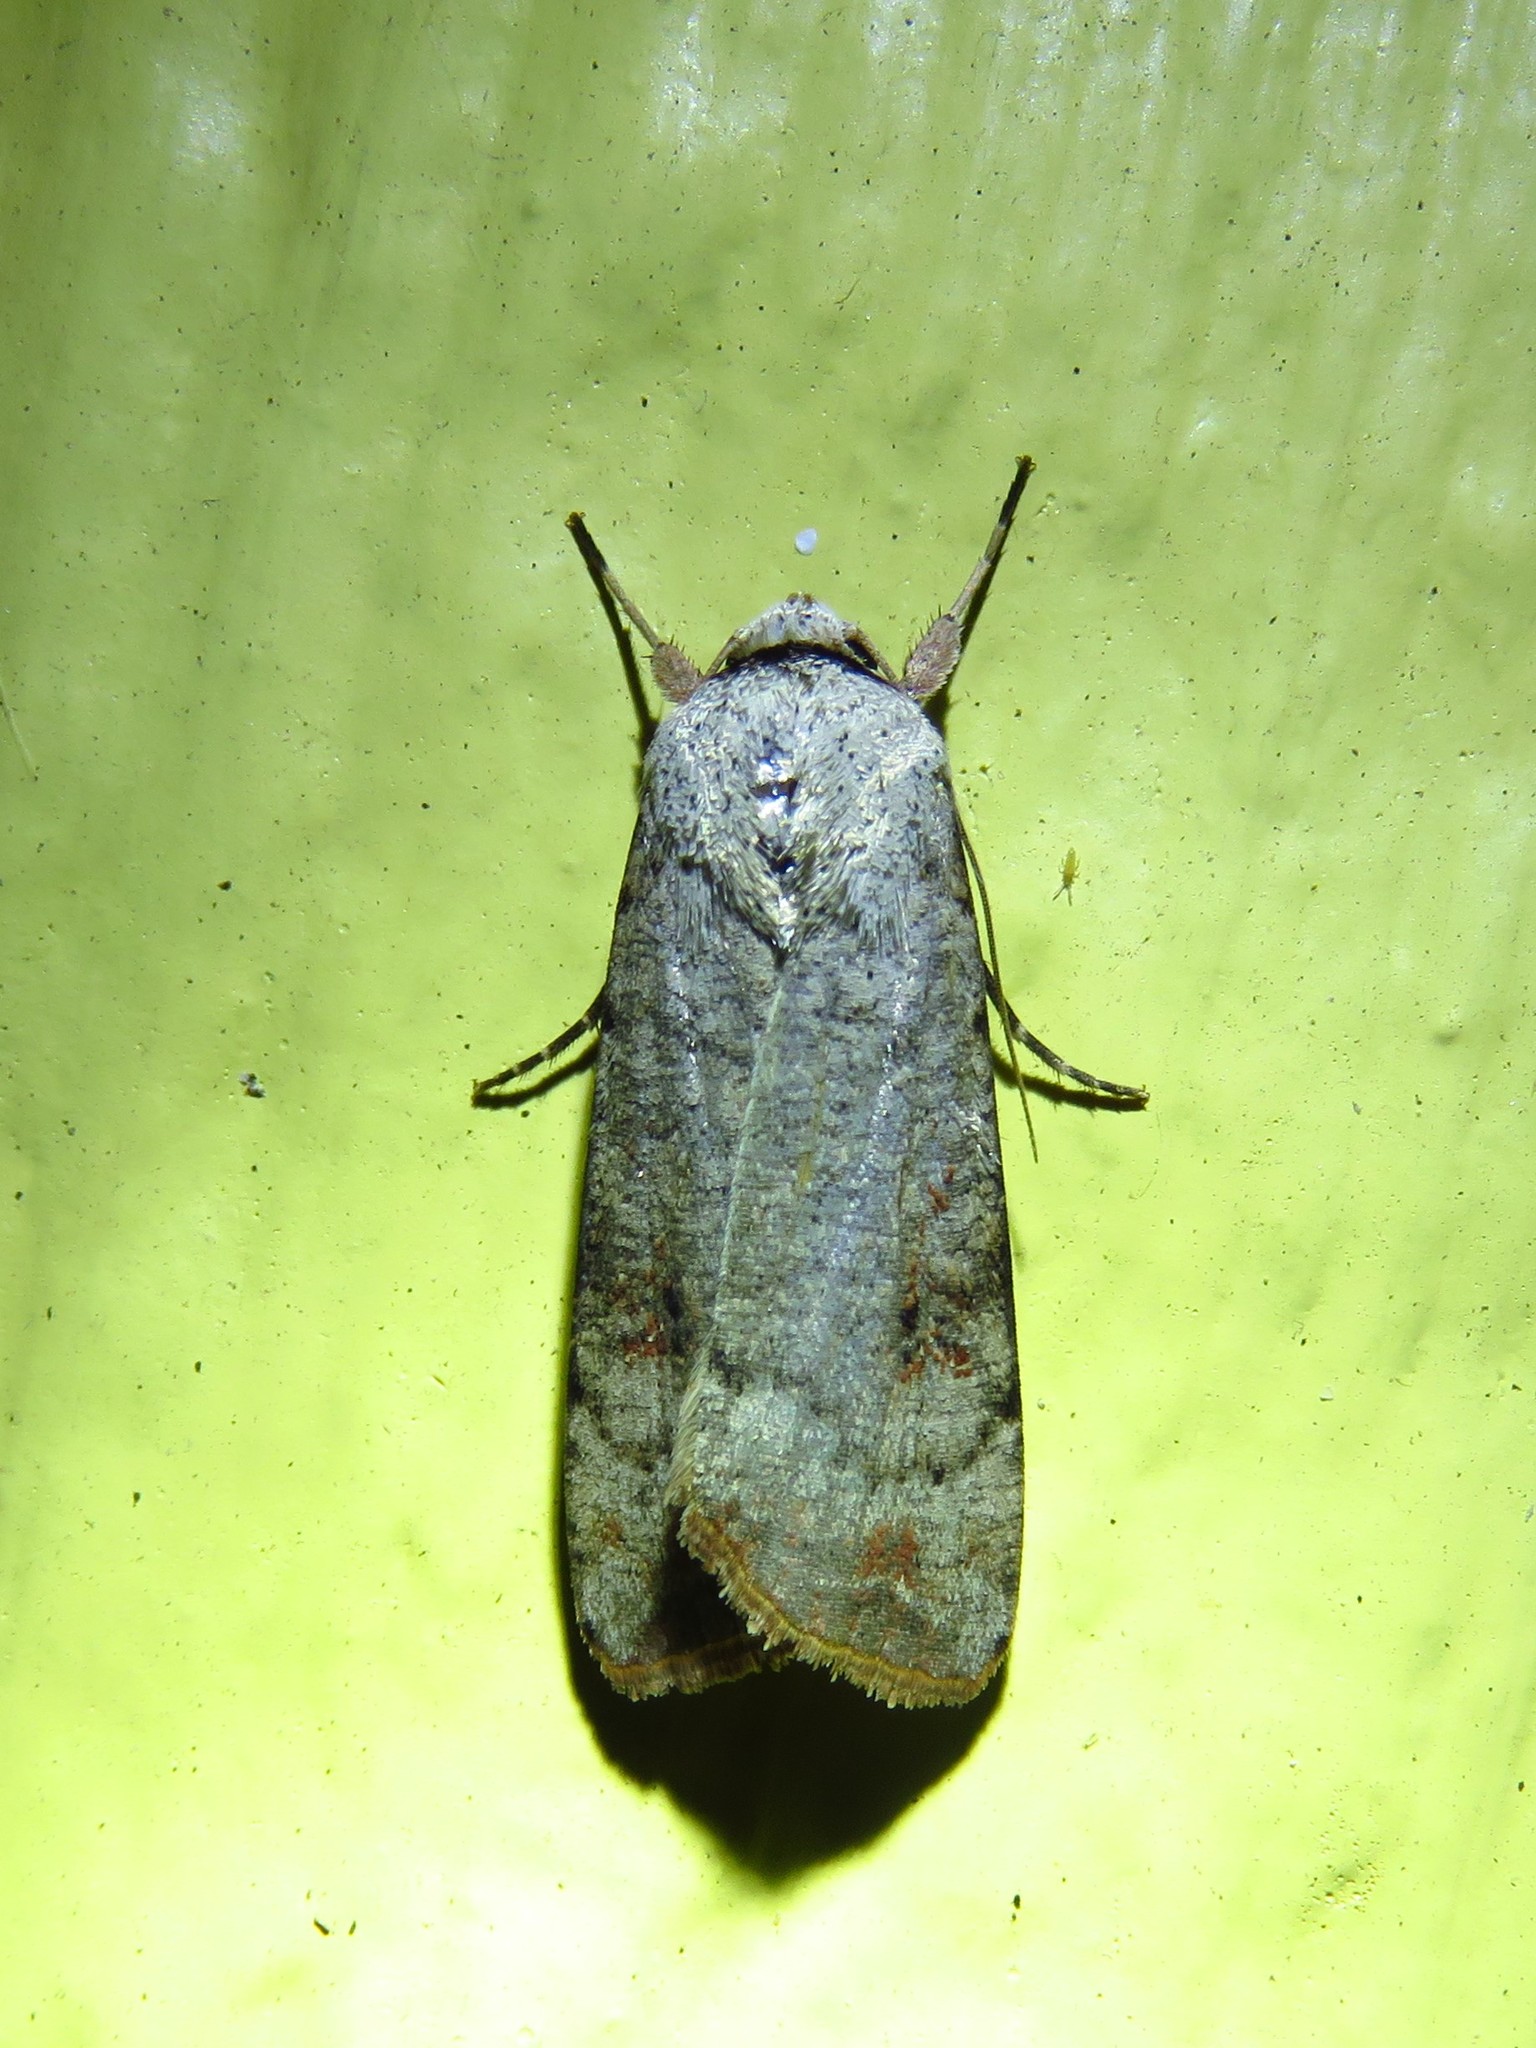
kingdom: Animalia
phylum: Arthropoda
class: Insecta
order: Lepidoptera
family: Noctuidae
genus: Anicla
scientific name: Anicla infecta
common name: Green cutworm
